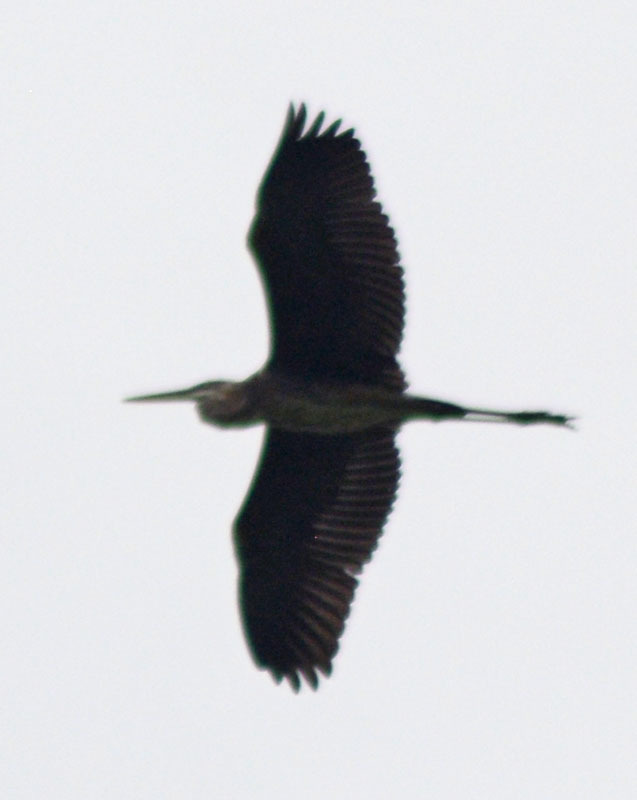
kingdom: Animalia
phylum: Chordata
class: Aves
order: Pelecaniformes
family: Ardeidae
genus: Ardea
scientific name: Ardea herodias
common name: Great blue heron
